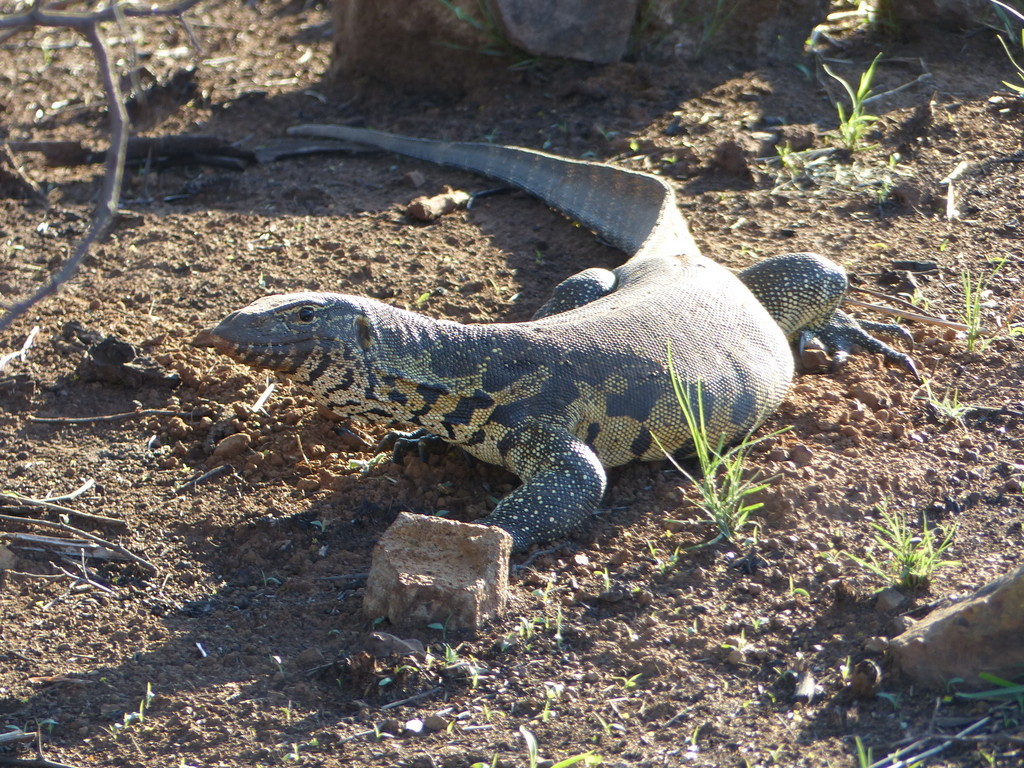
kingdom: Animalia
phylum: Chordata
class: Squamata
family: Varanidae
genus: Varanus
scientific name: Varanus niloticus
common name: Nile monitor
